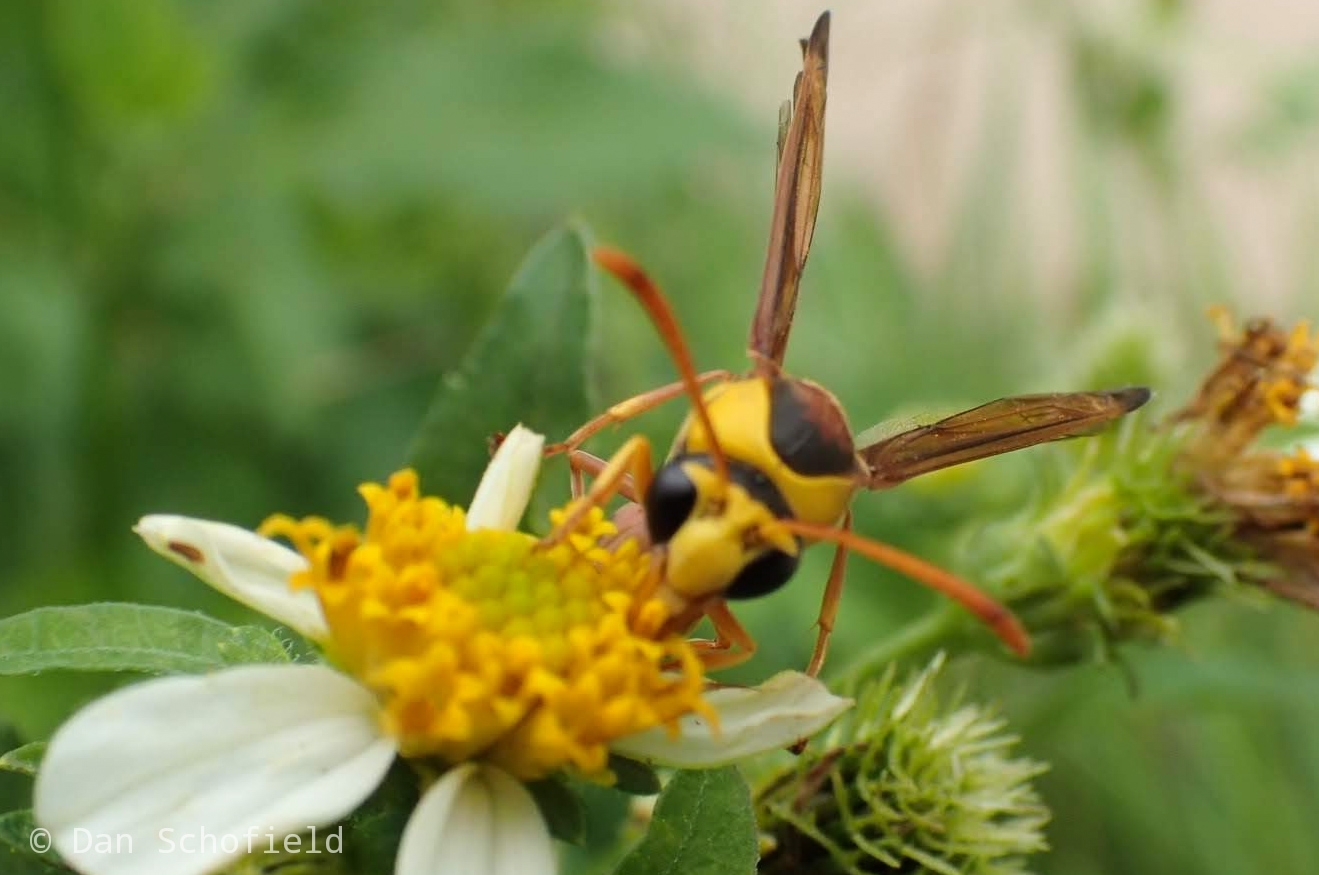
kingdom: Animalia
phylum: Arthropoda
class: Insecta
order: Hymenoptera
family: Eumenidae
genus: Delta
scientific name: Delta esuriens
